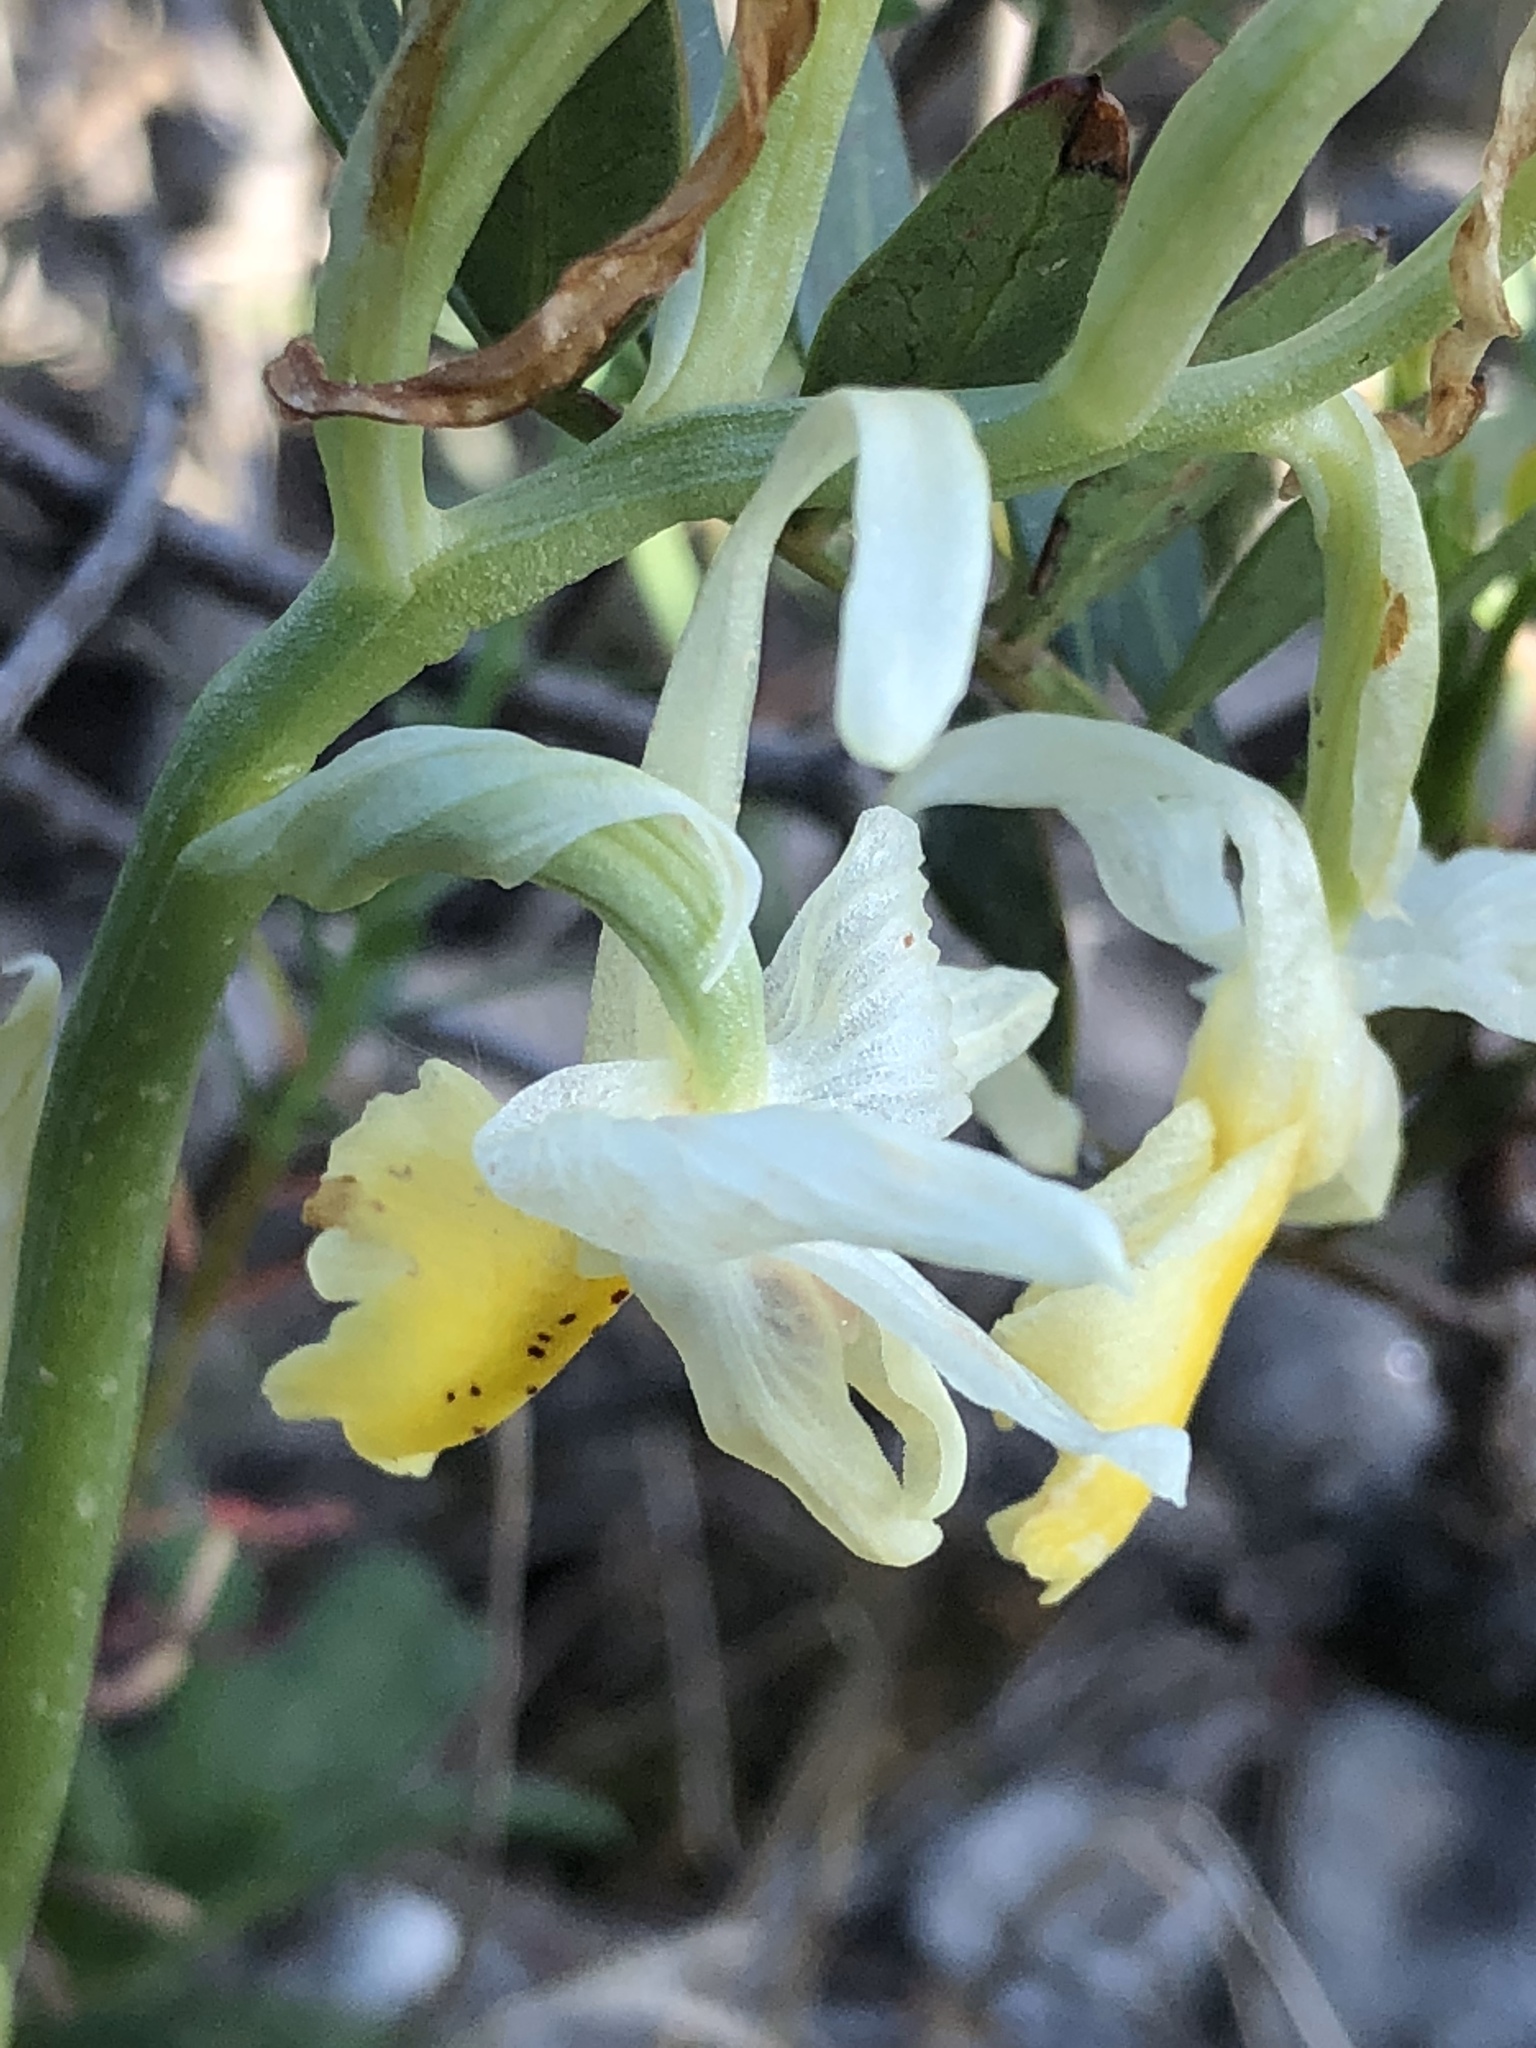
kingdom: Plantae
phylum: Tracheophyta
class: Liliopsida
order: Asparagales
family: Orchidaceae
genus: Orchis
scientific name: Orchis pauciflora
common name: Few-flowered orchid
